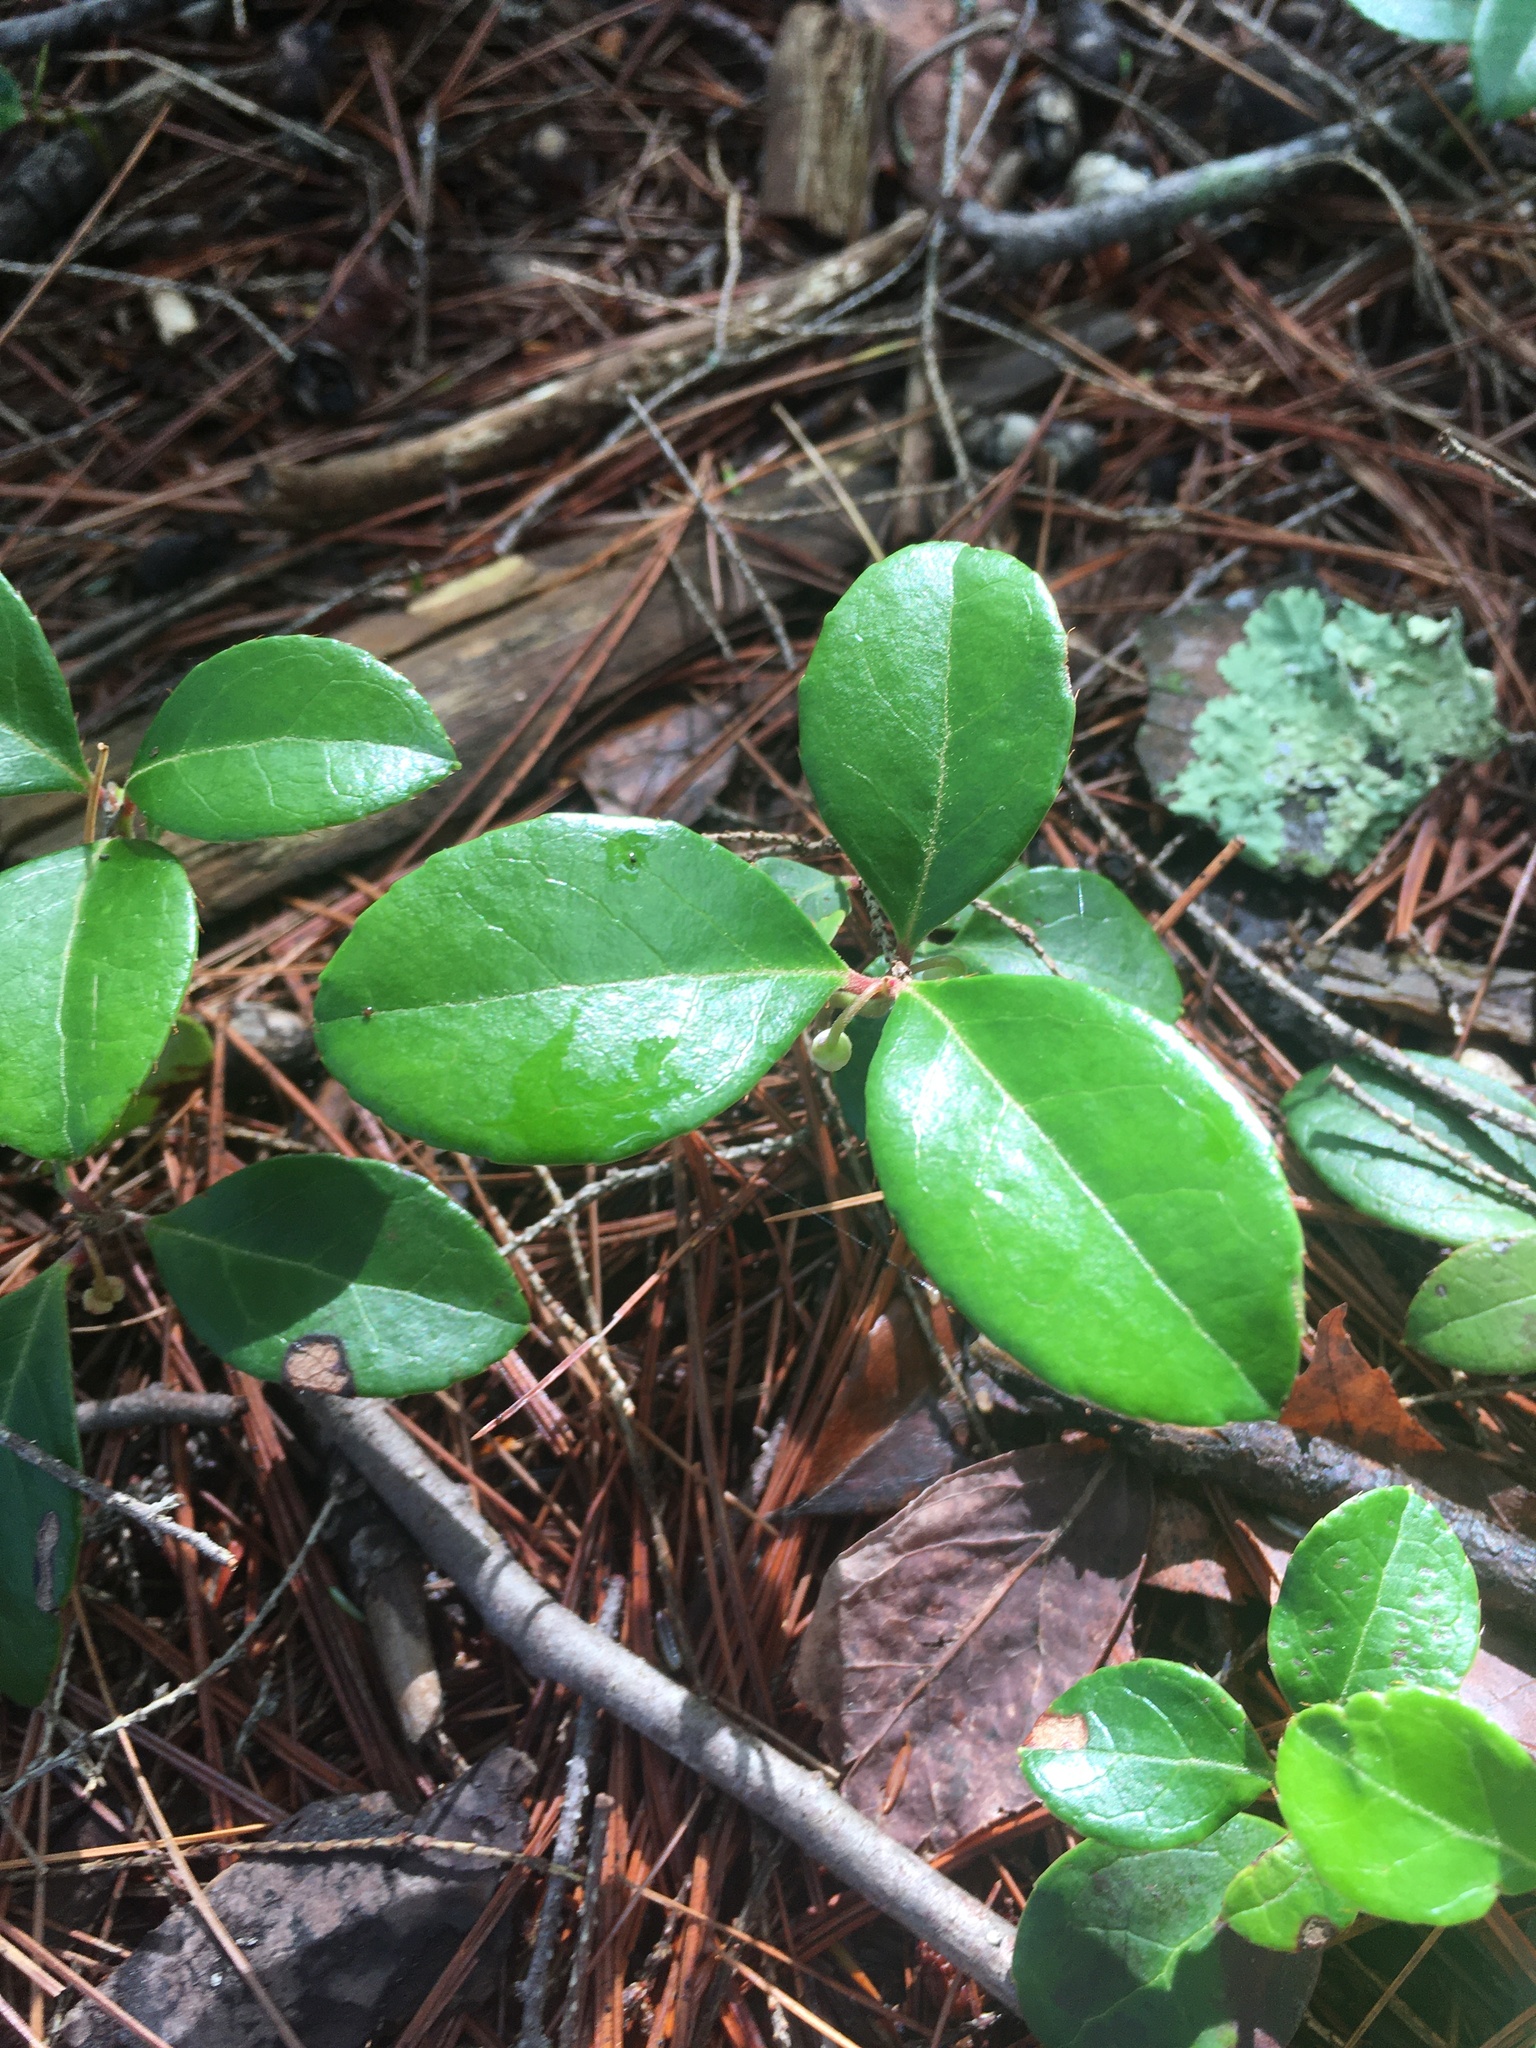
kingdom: Plantae
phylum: Tracheophyta
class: Magnoliopsida
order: Ericales
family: Ericaceae
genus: Gaultheria
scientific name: Gaultheria procumbens
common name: Checkerberry
